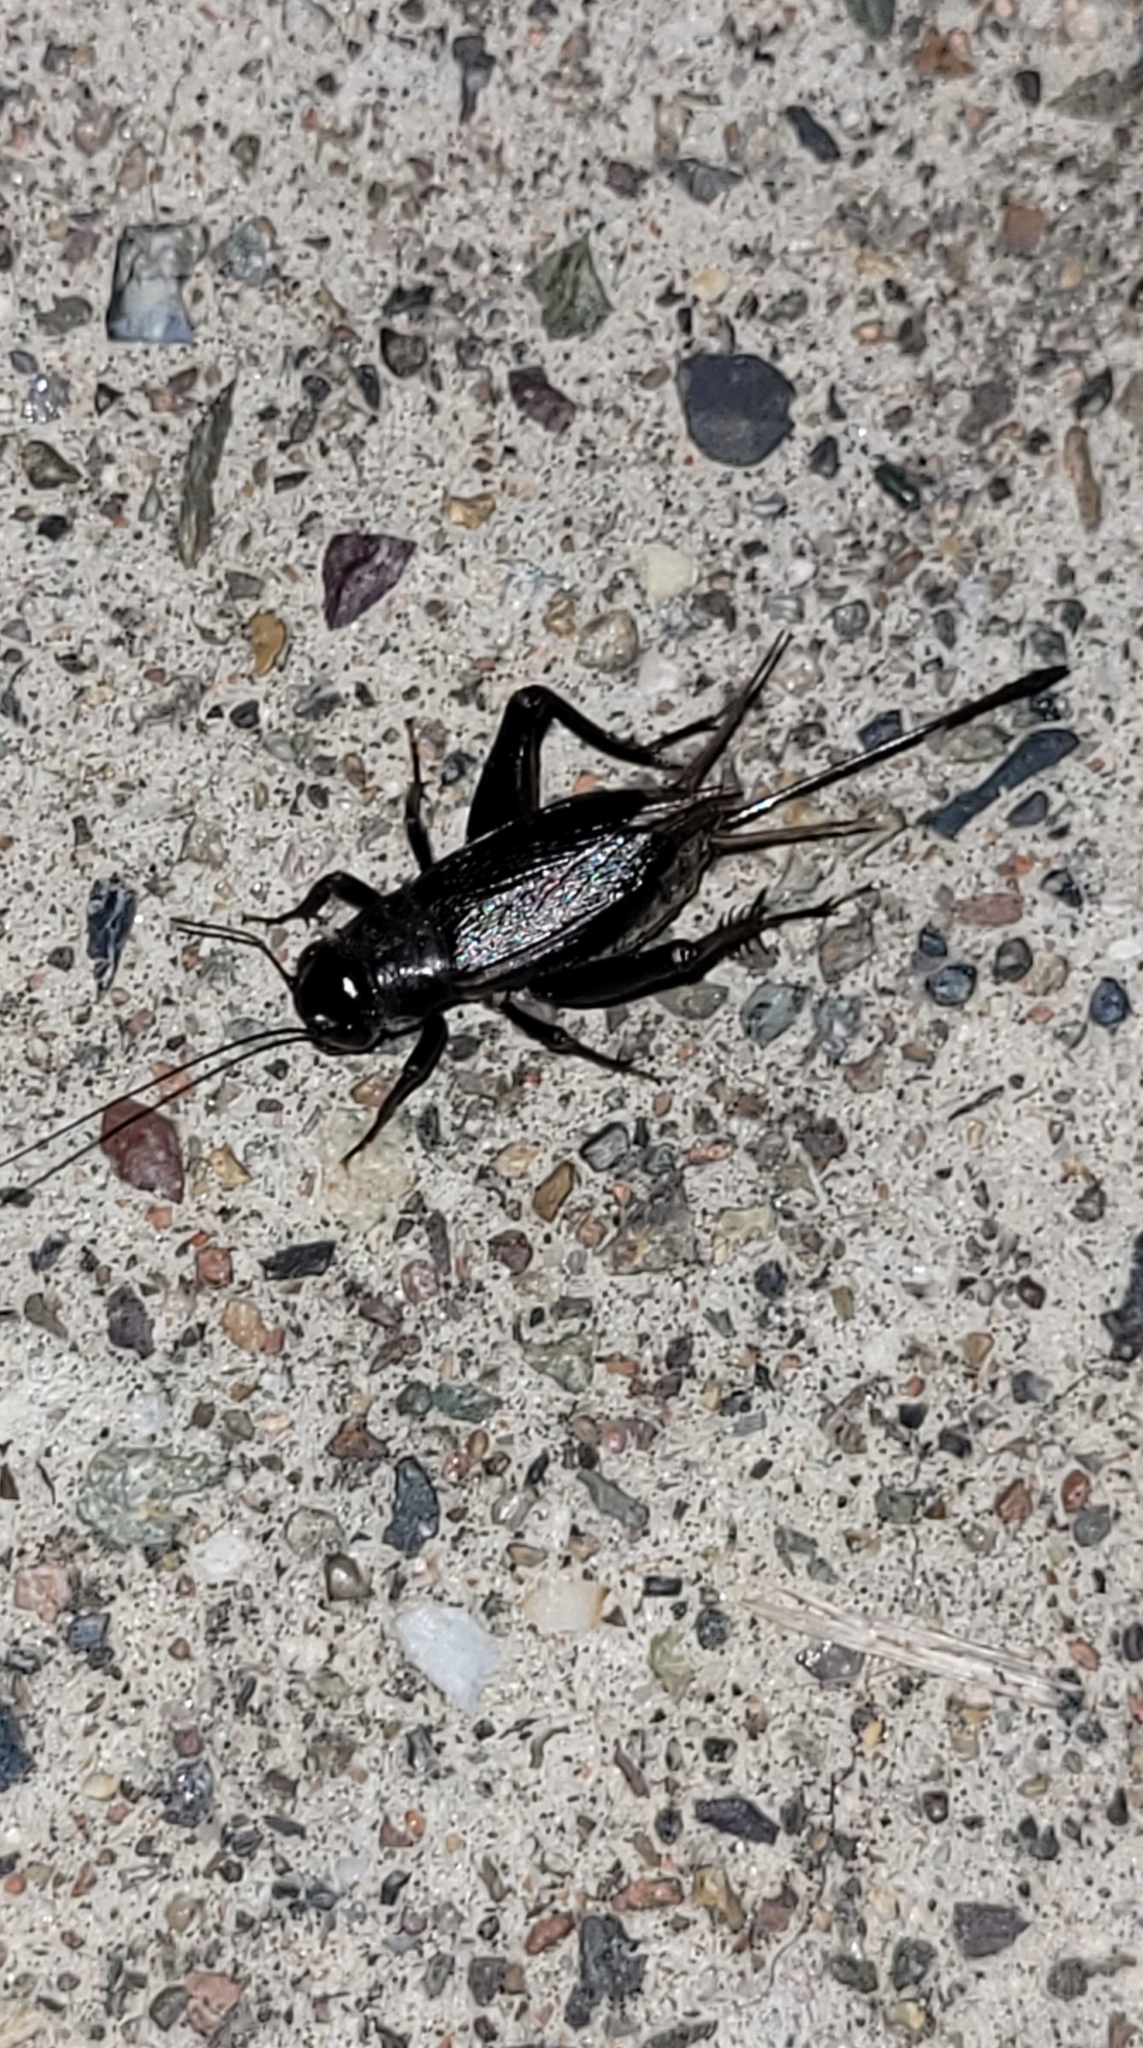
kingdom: Animalia
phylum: Arthropoda
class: Insecta
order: Orthoptera
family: Gryllidae
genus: Teleogryllus
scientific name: Teleogryllus infernalis
